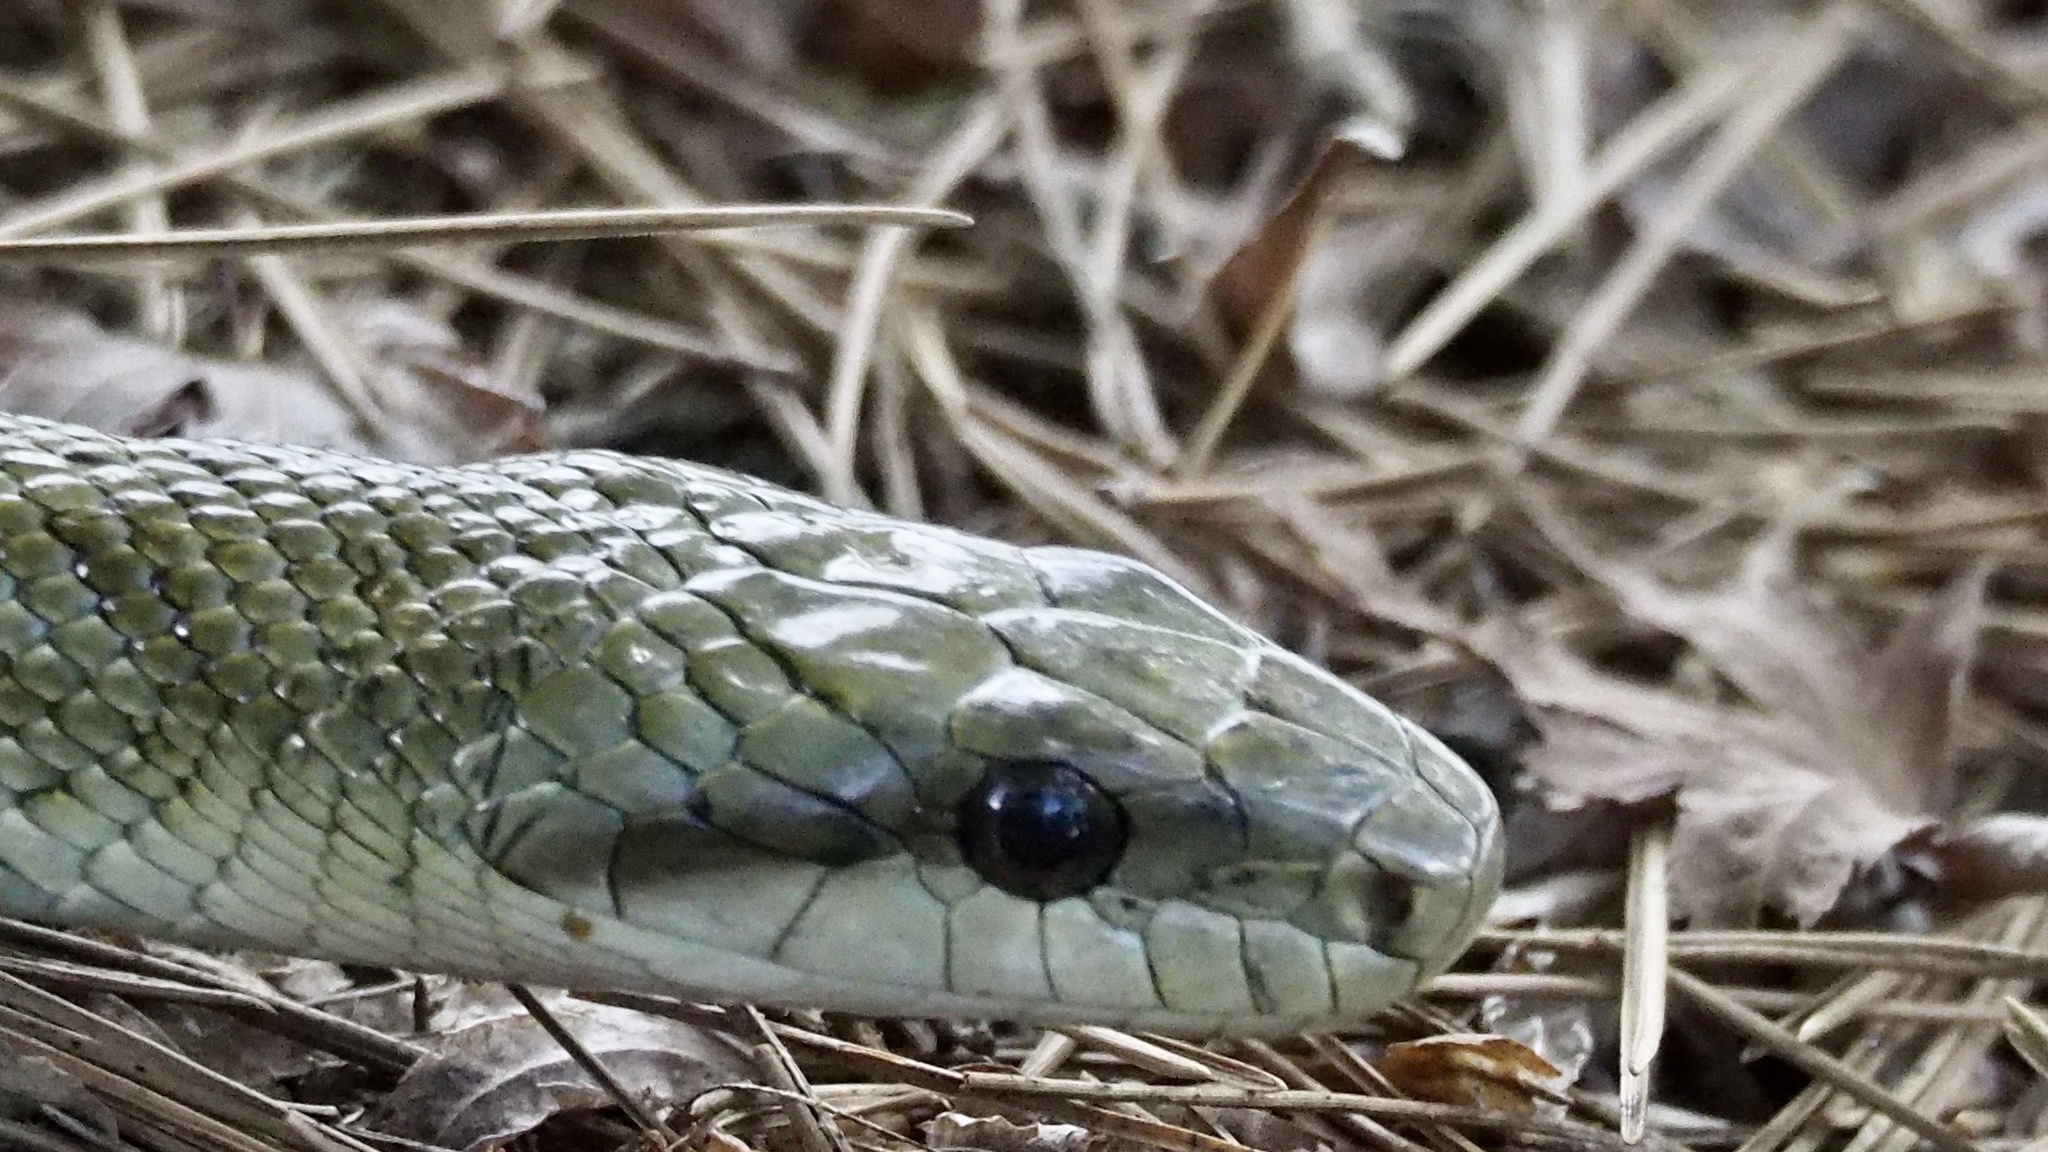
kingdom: Animalia
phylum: Chordata
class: Squamata
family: Colubridae
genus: Elaphe
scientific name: Elaphe climacophora
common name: Japanese ratsnake
